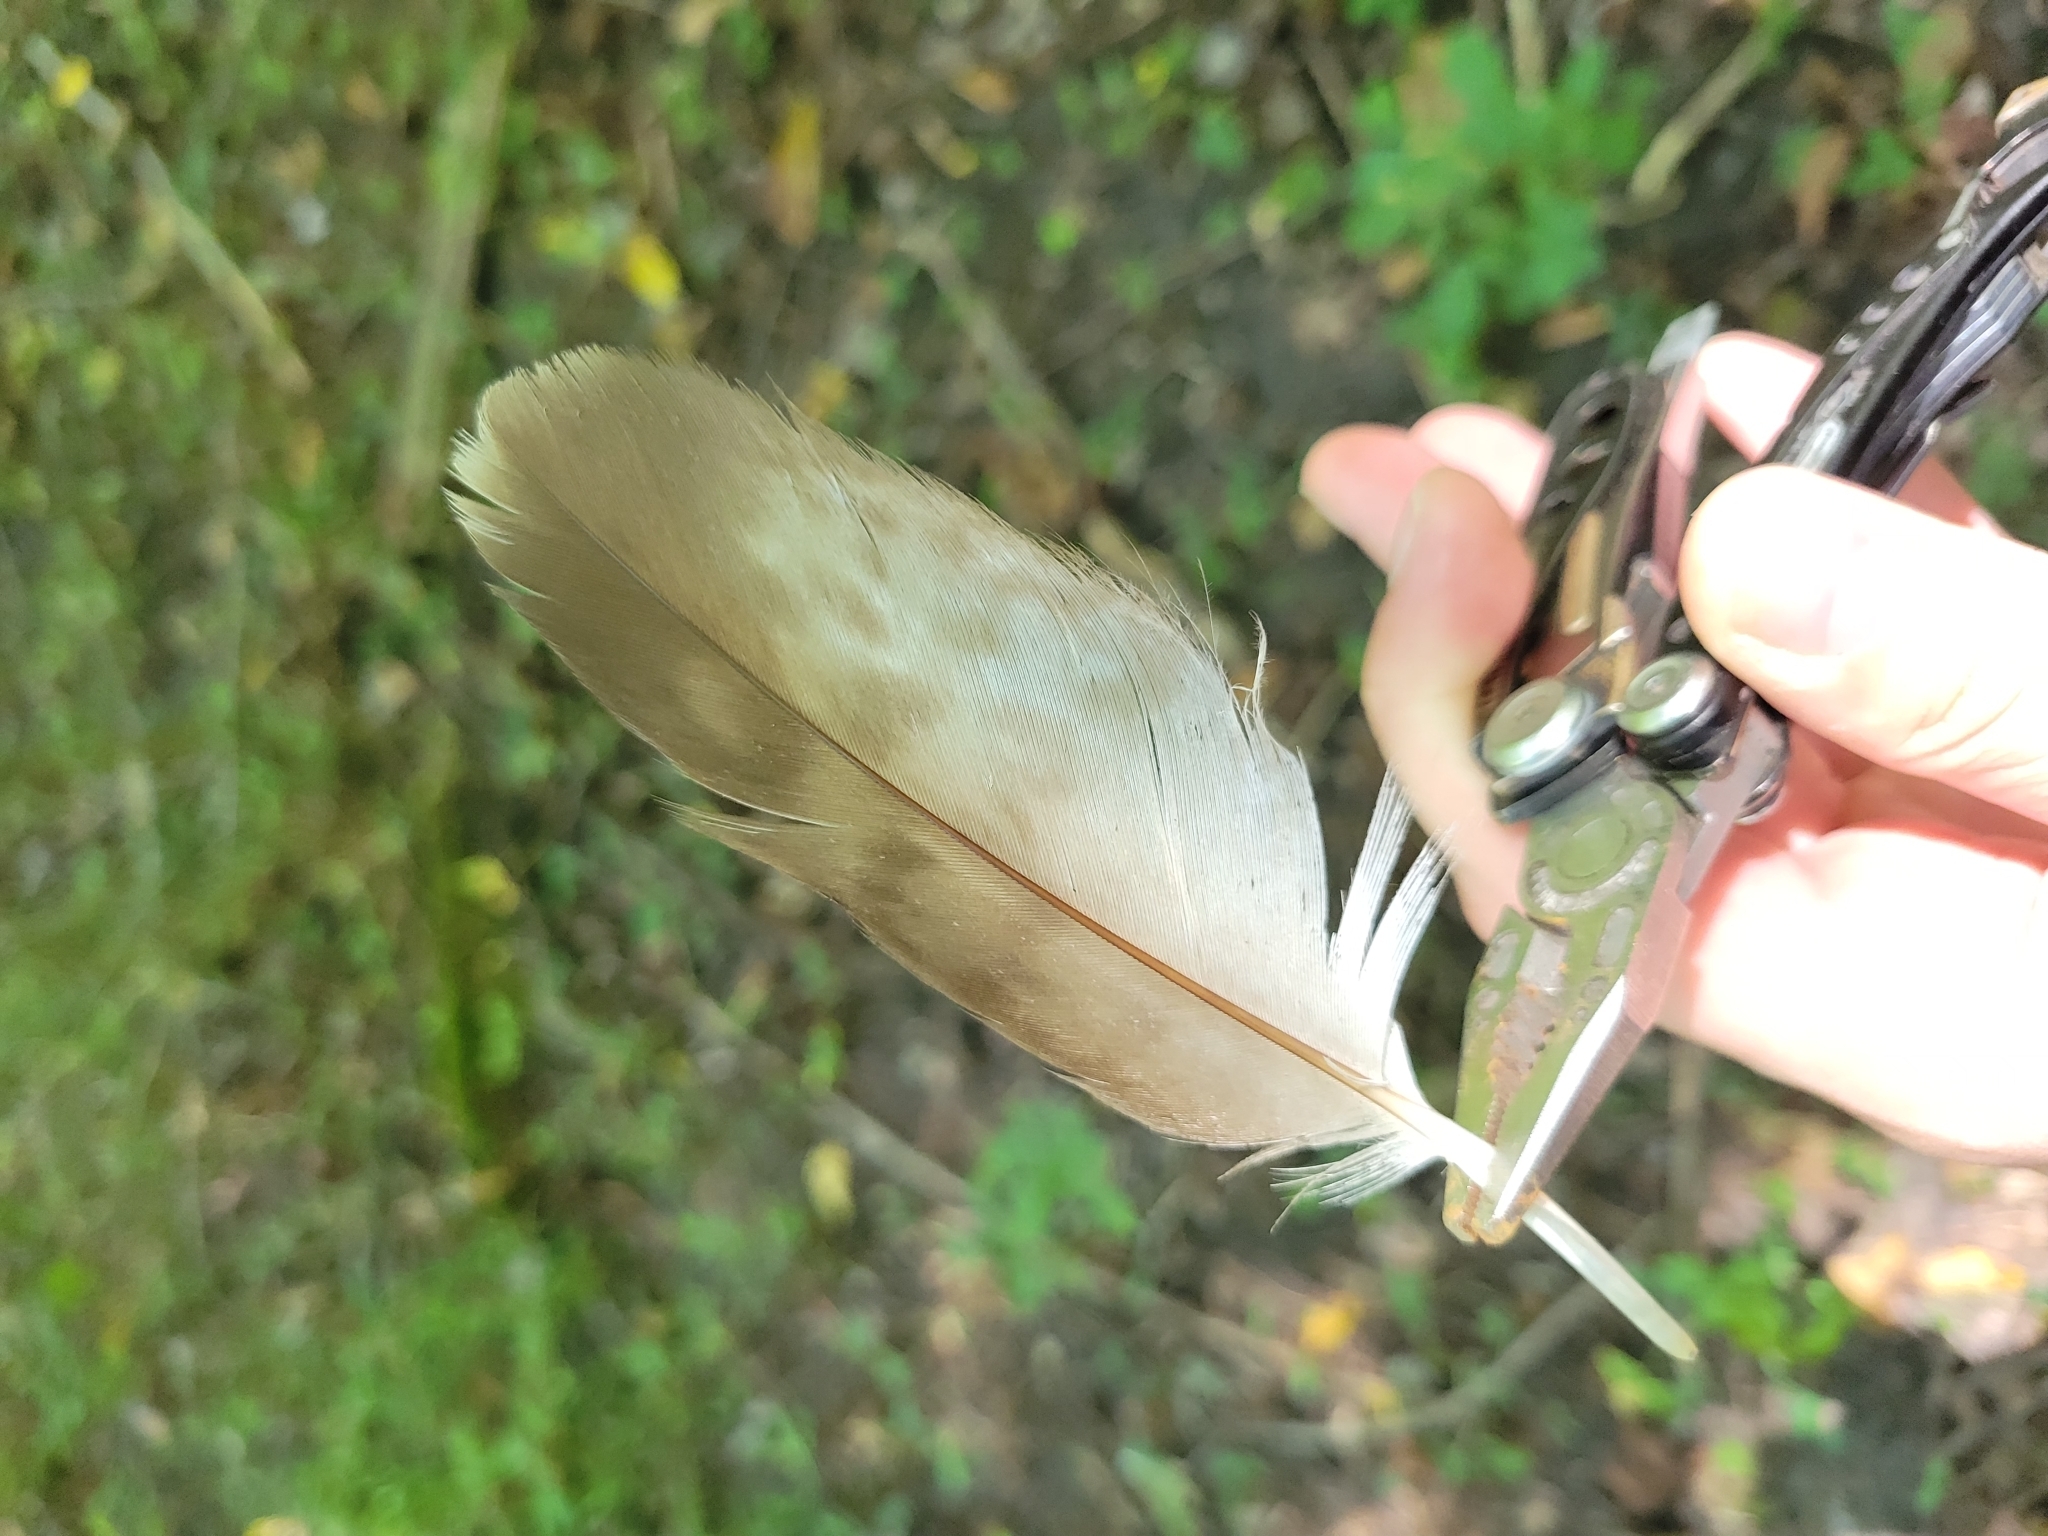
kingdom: Animalia
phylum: Chordata
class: Aves
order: Accipitriformes
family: Accipitridae
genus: Buteo
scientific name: Buteo jamaicensis
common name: Red-tailed hawk
